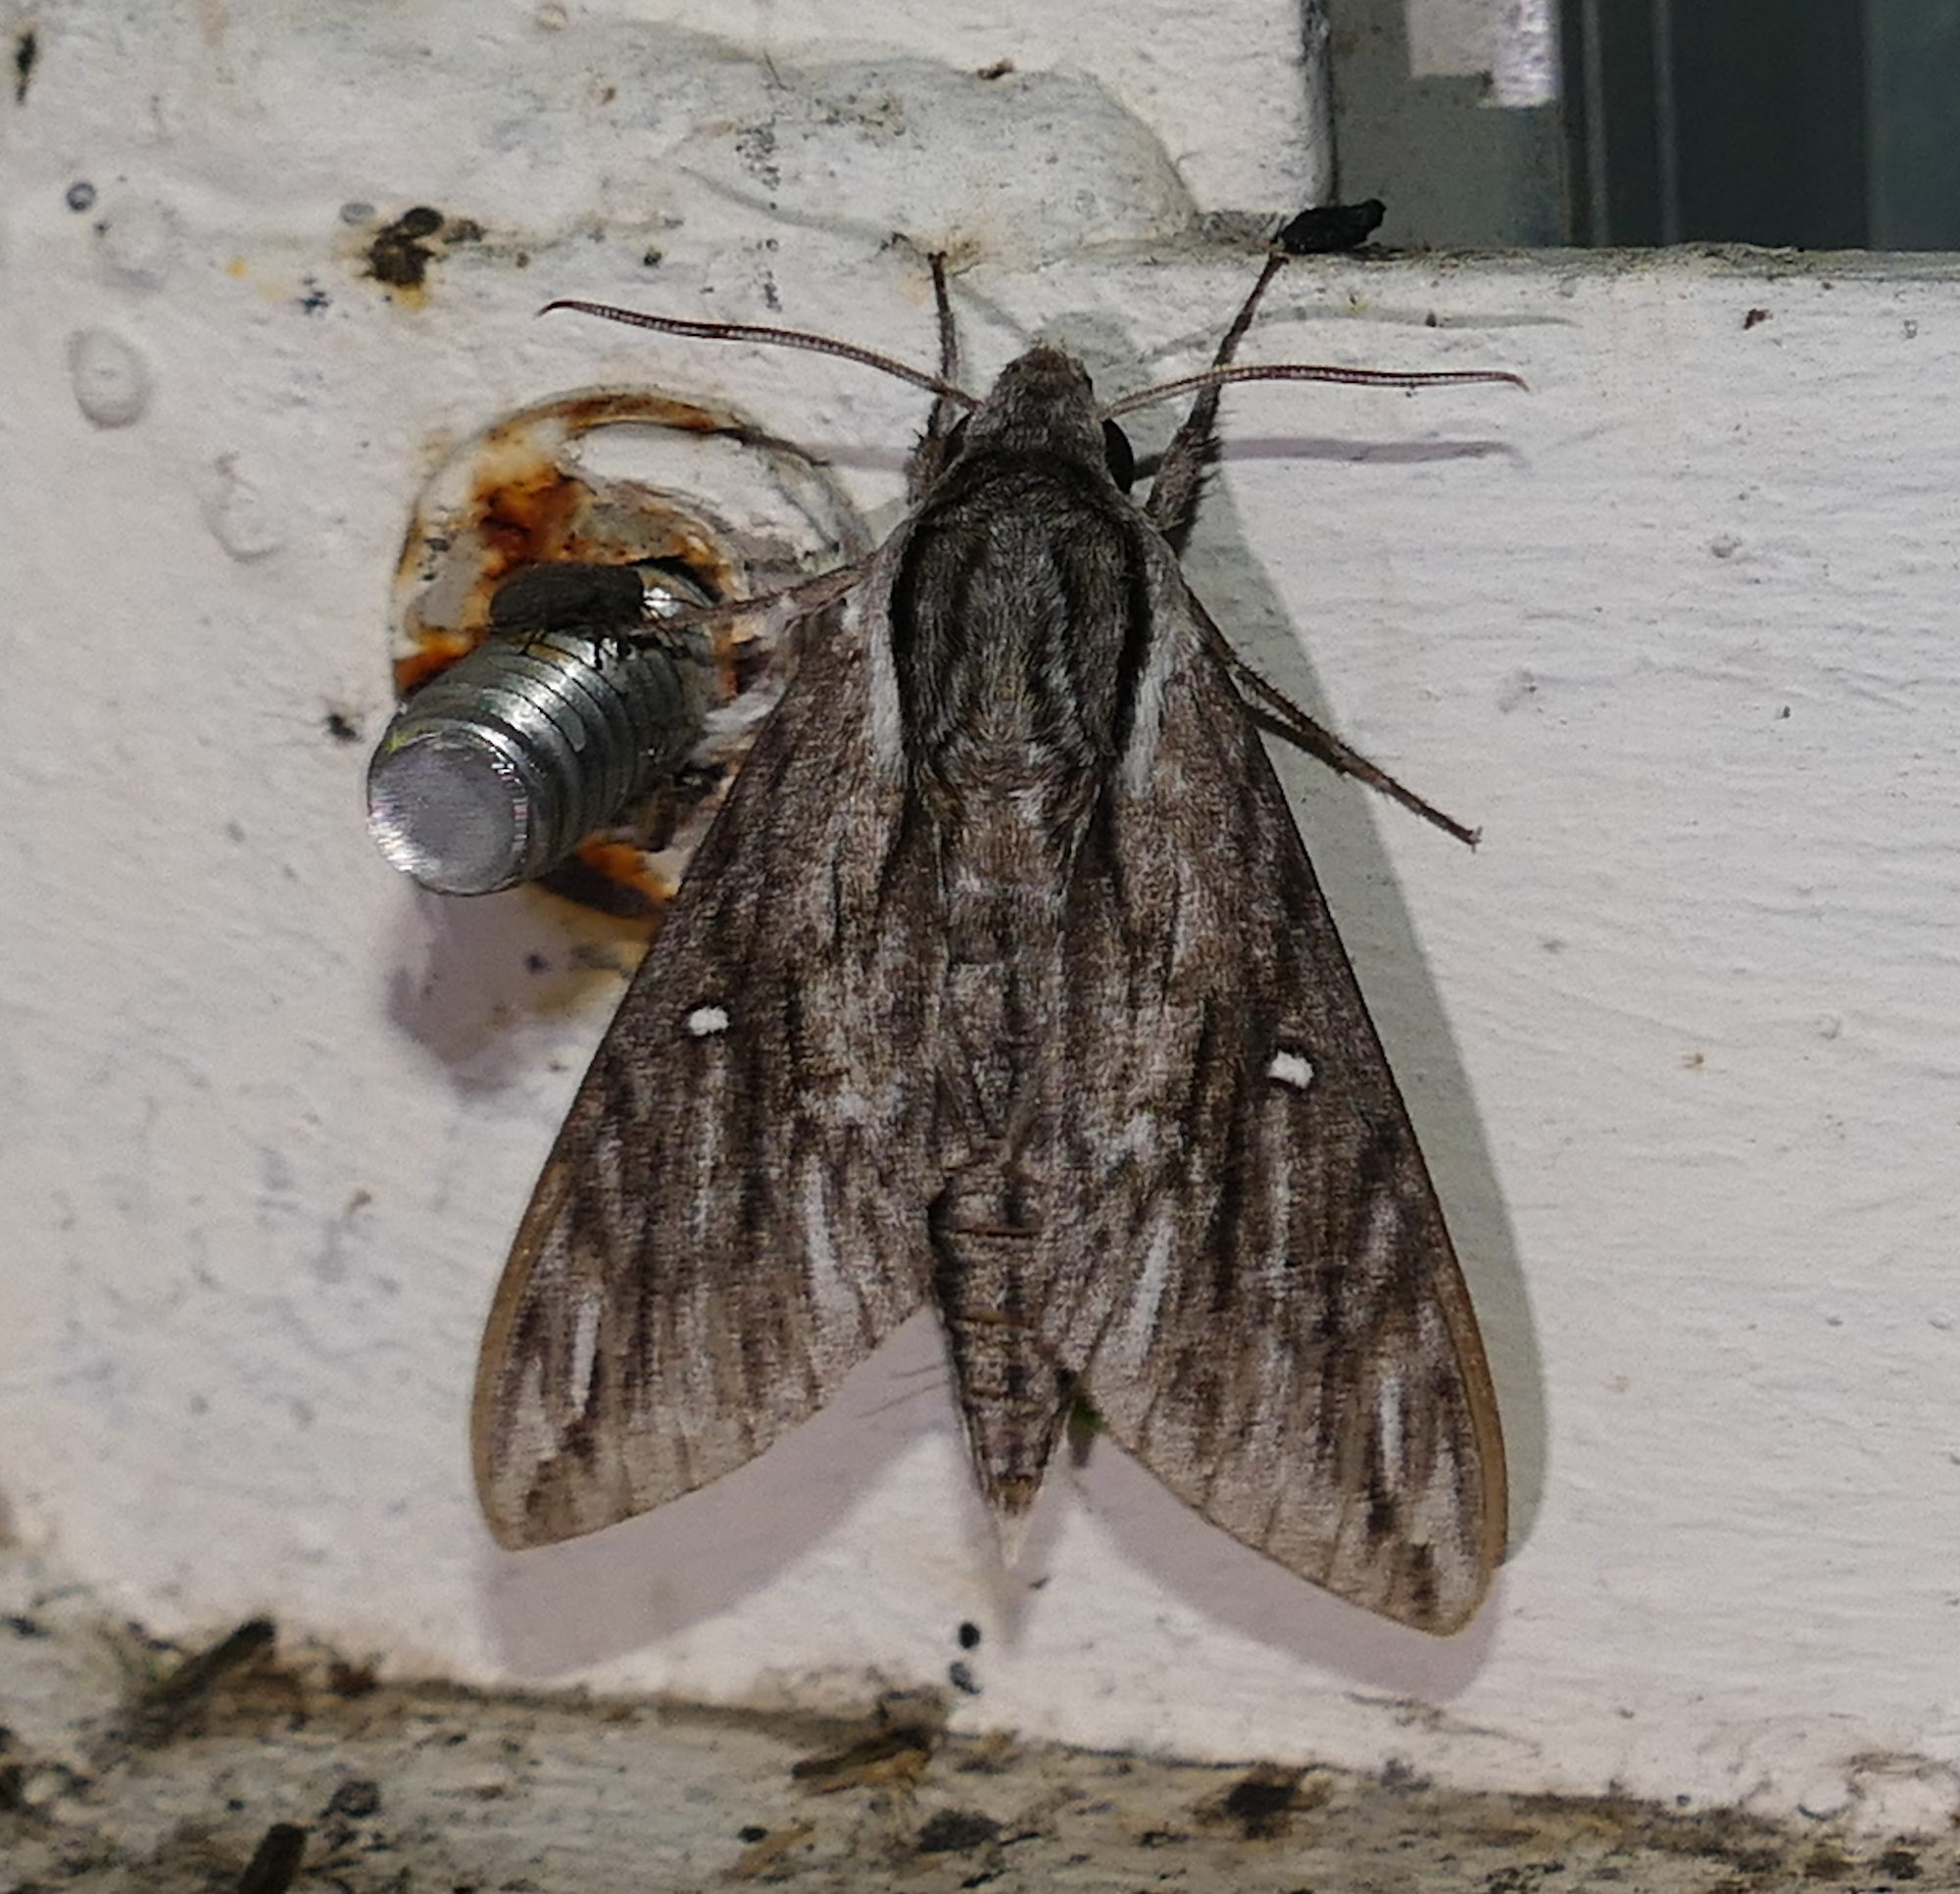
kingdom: Animalia
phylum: Arthropoda
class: Insecta
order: Lepidoptera
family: Sphingidae
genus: Paratrea
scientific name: Paratrea plebeja
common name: Plebian sphinx
